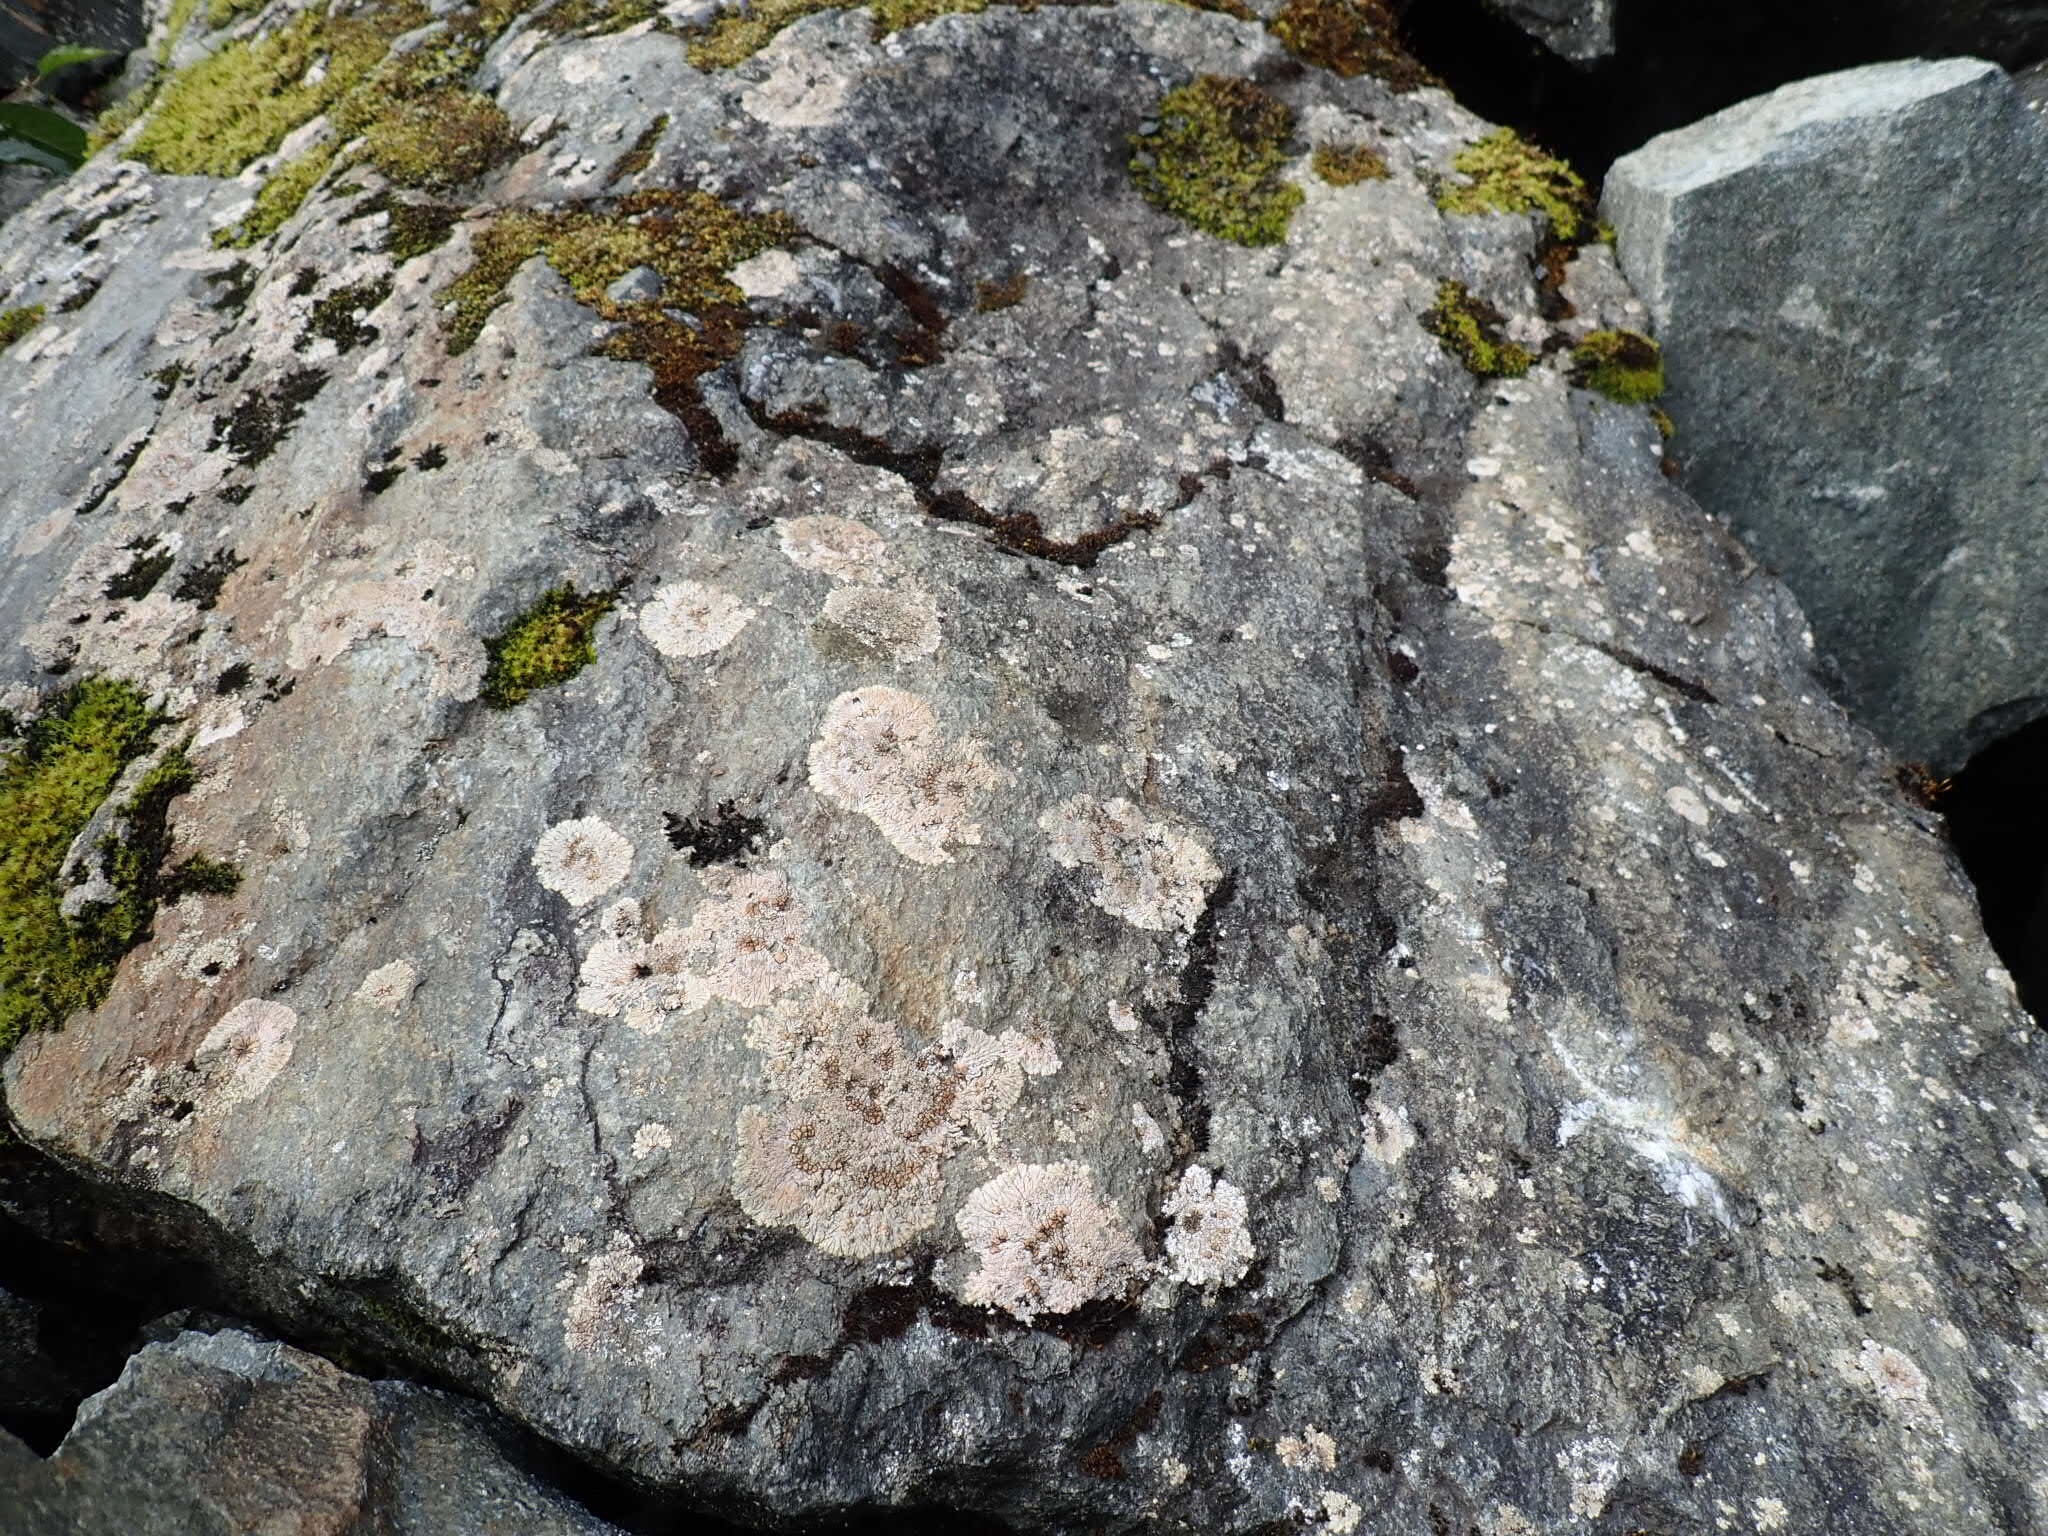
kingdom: Plantae
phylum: Bryophyta
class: Bryopsida
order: Hypnales
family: Hylocomiaceae
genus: Hylocomium
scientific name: Hylocomium splendens
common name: Stairstep moss
